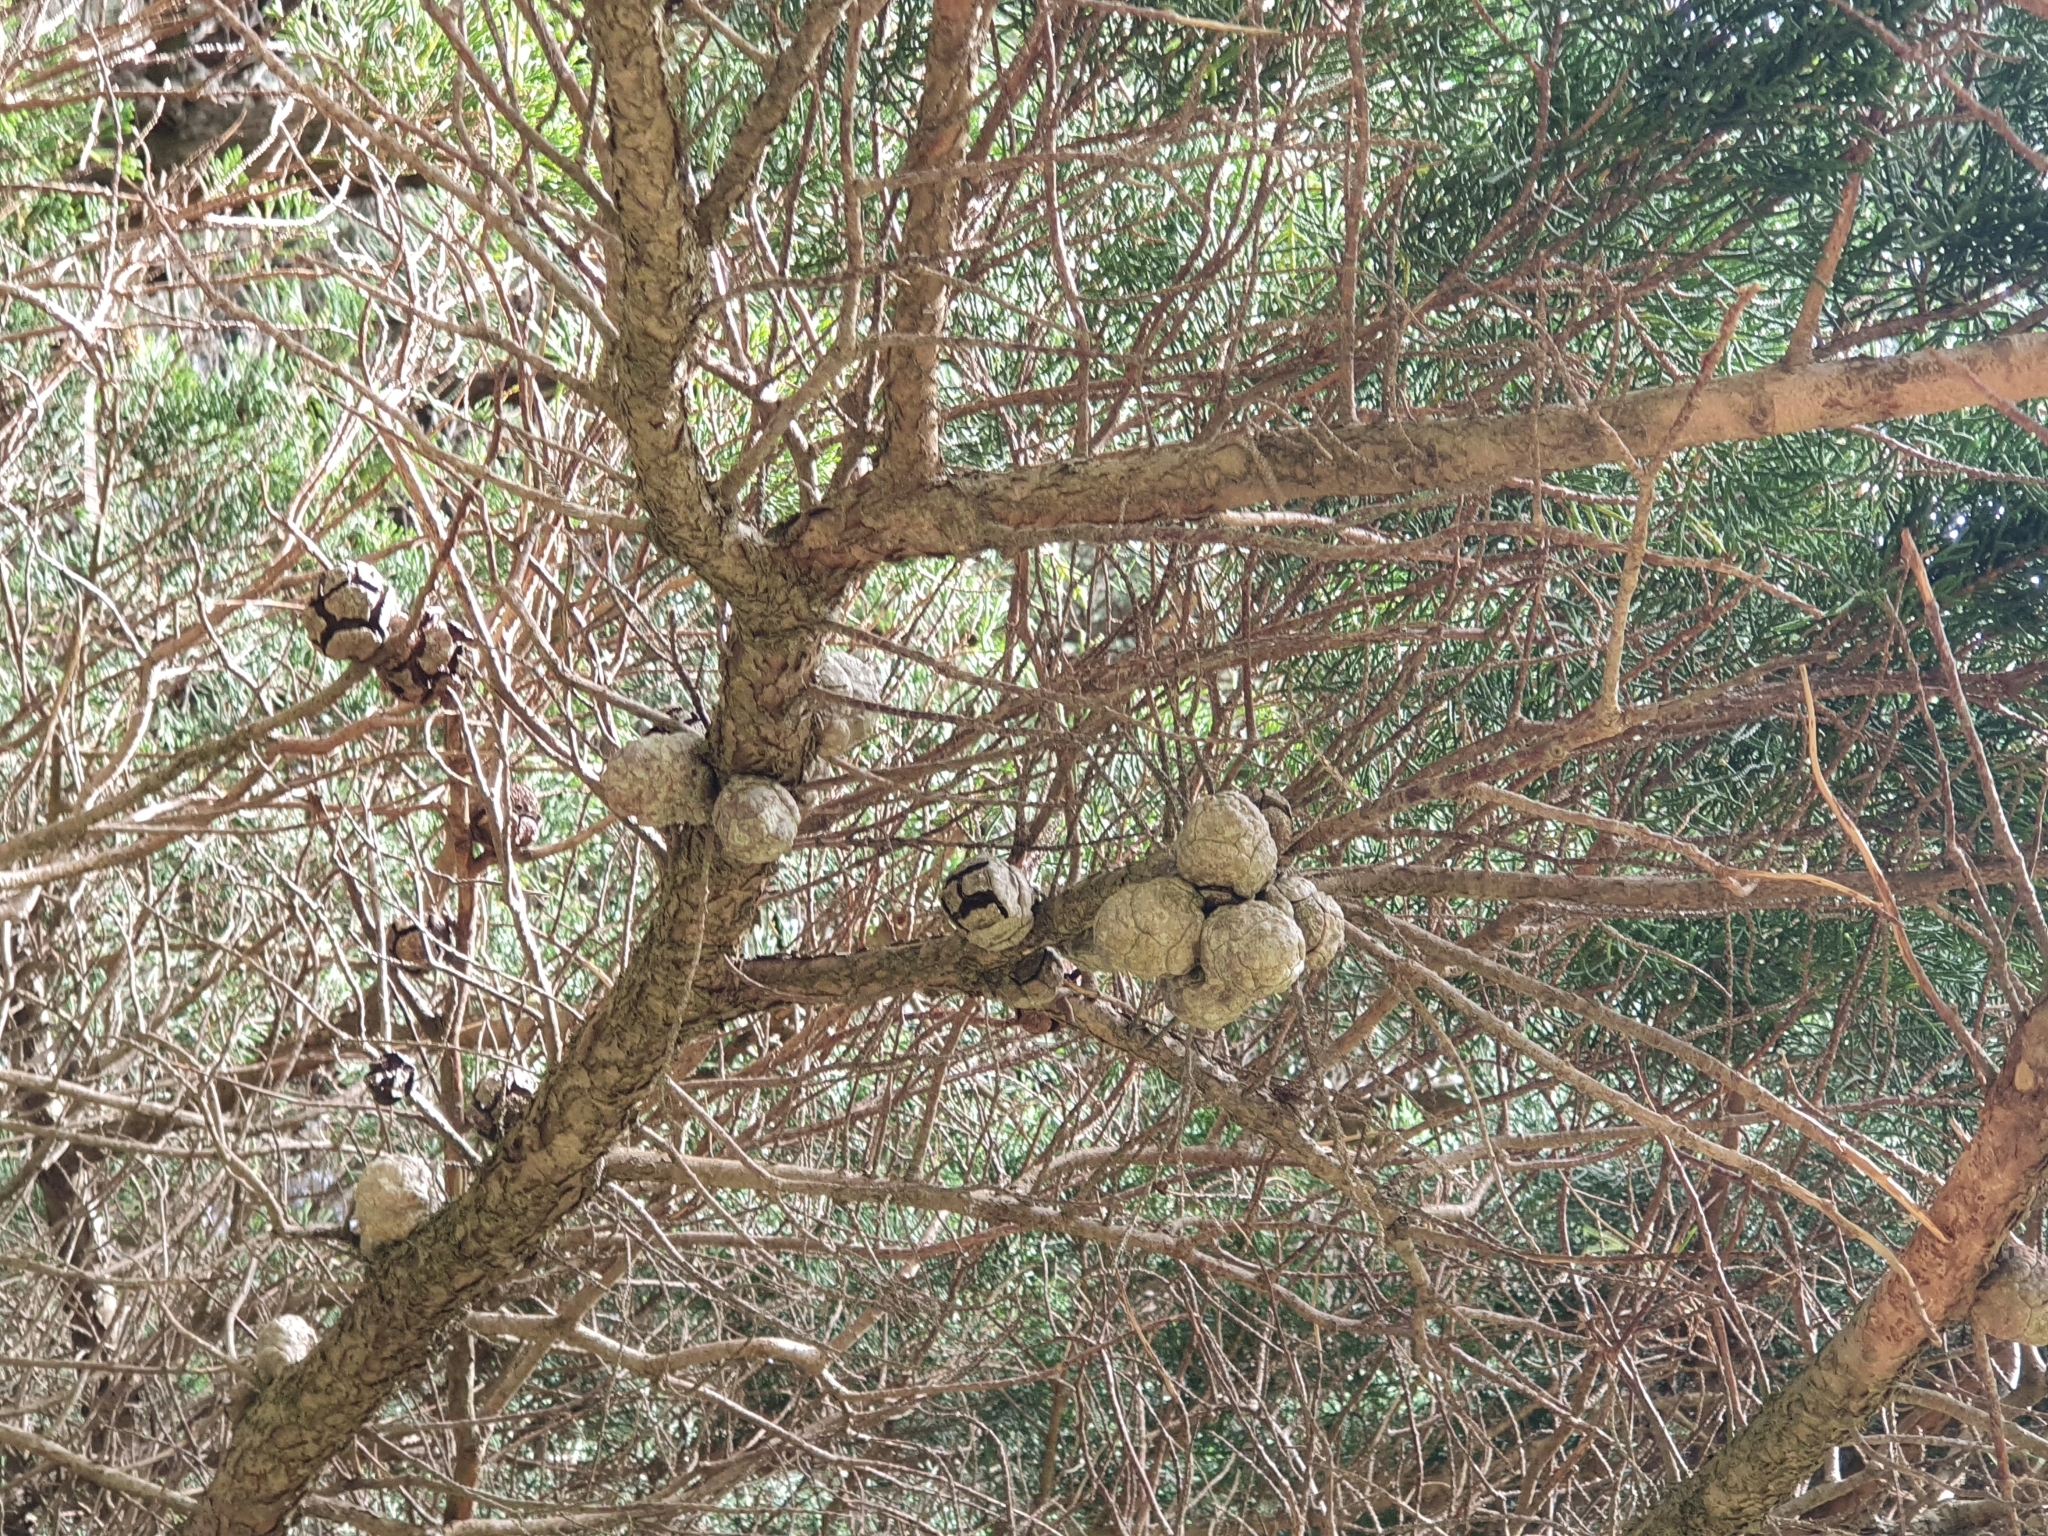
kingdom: Plantae
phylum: Tracheophyta
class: Pinopsida
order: Pinales
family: Cupressaceae
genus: Cupressus
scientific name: Cupressus macrocarpa
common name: Monterey cypress
